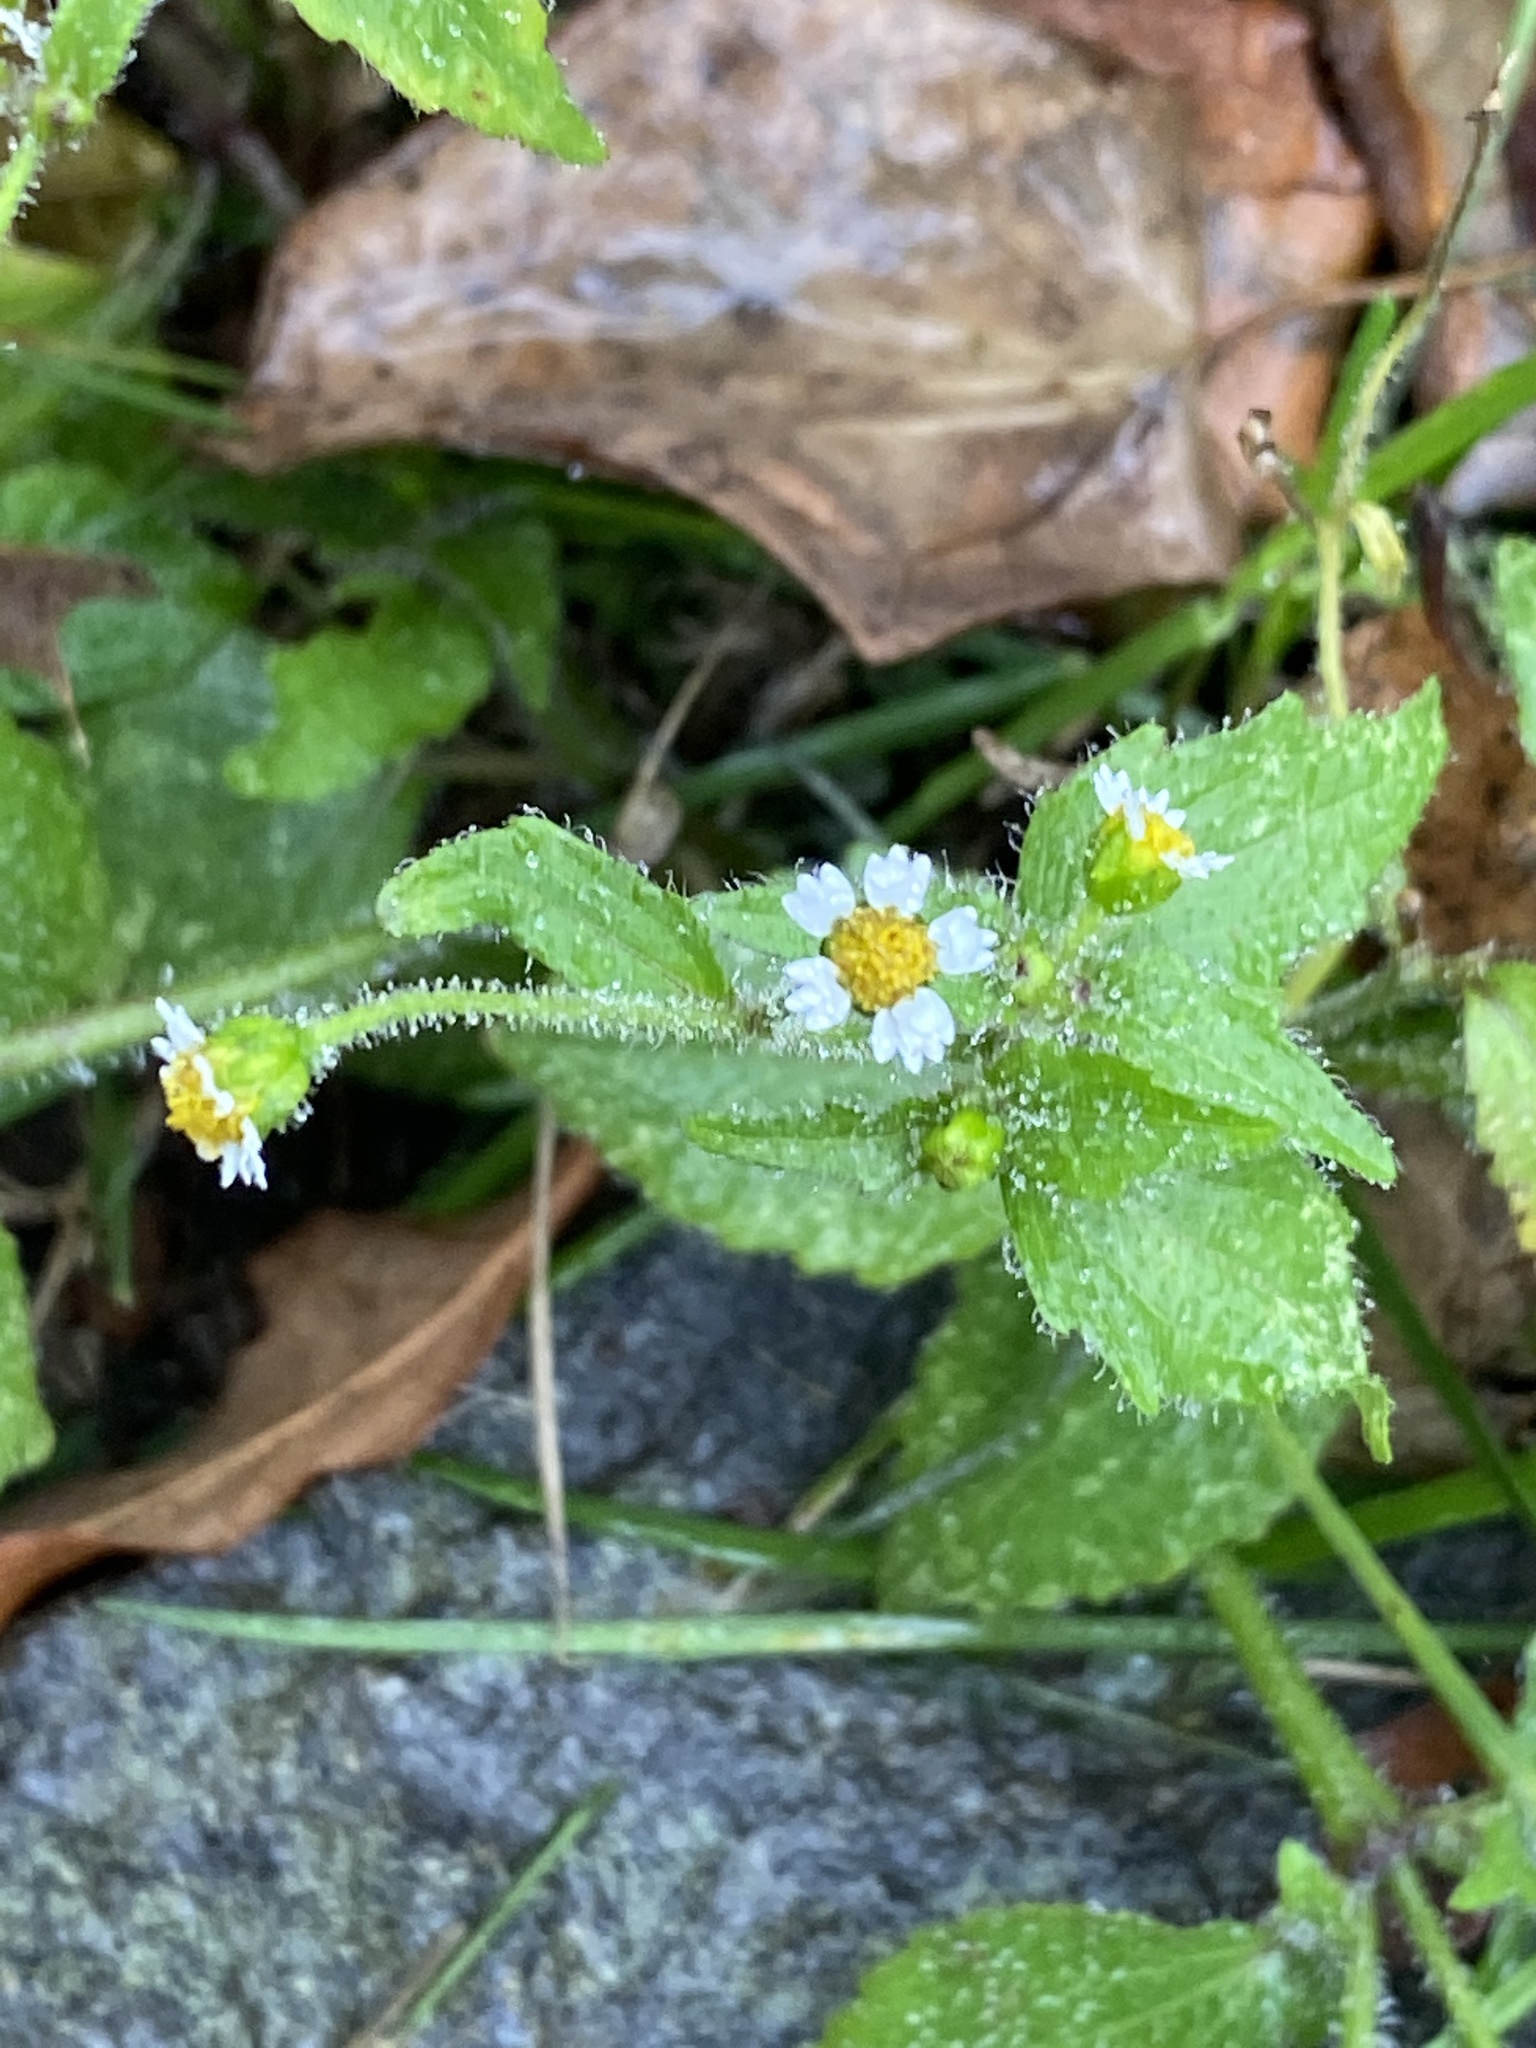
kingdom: Plantae
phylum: Tracheophyta
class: Magnoliopsida
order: Asterales
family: Asteraceae
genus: Galinsoga
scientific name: Galinsoga quadriradiata
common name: Shaggy soldier
